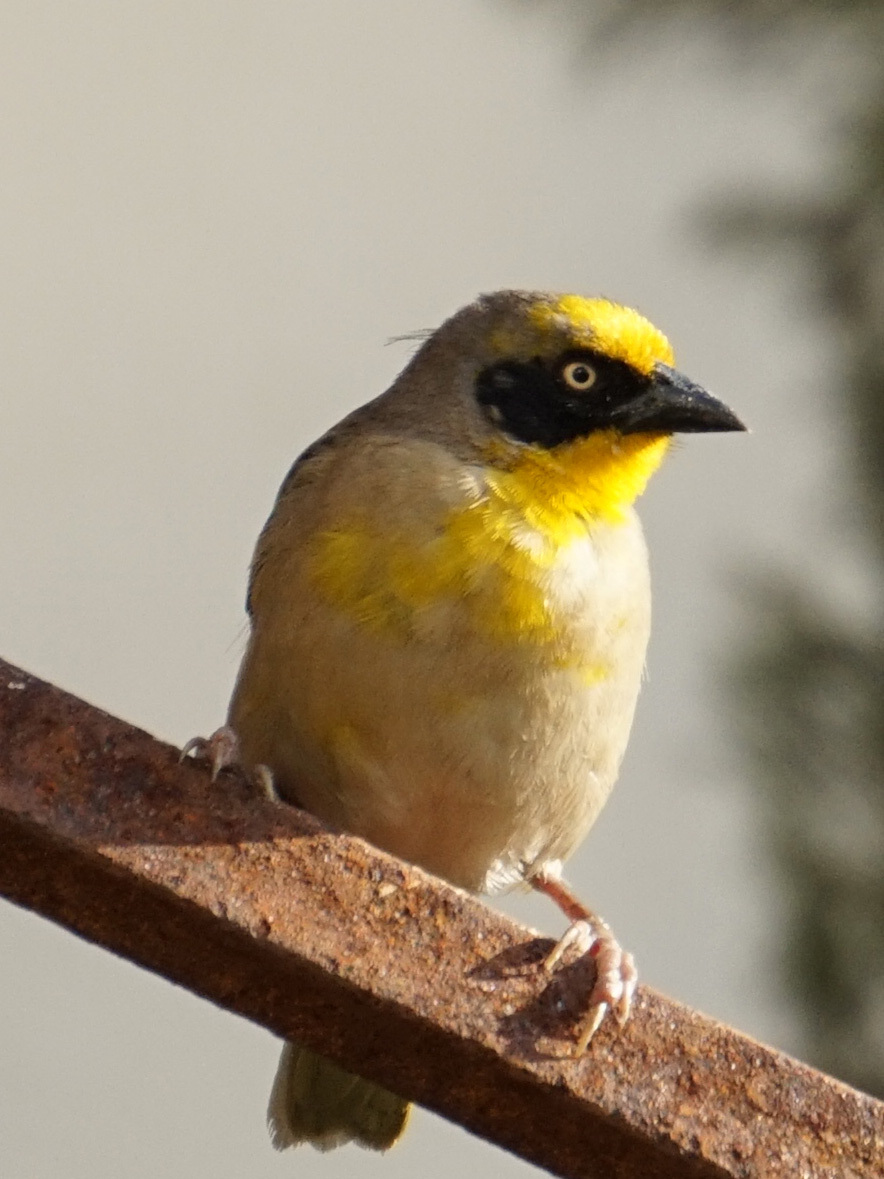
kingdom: Animalia
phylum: Chordata
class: Aves
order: Passeriformes
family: Ploceidae
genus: Ploceus
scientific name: Ploceus baglafecht
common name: Baglafecht weaver
